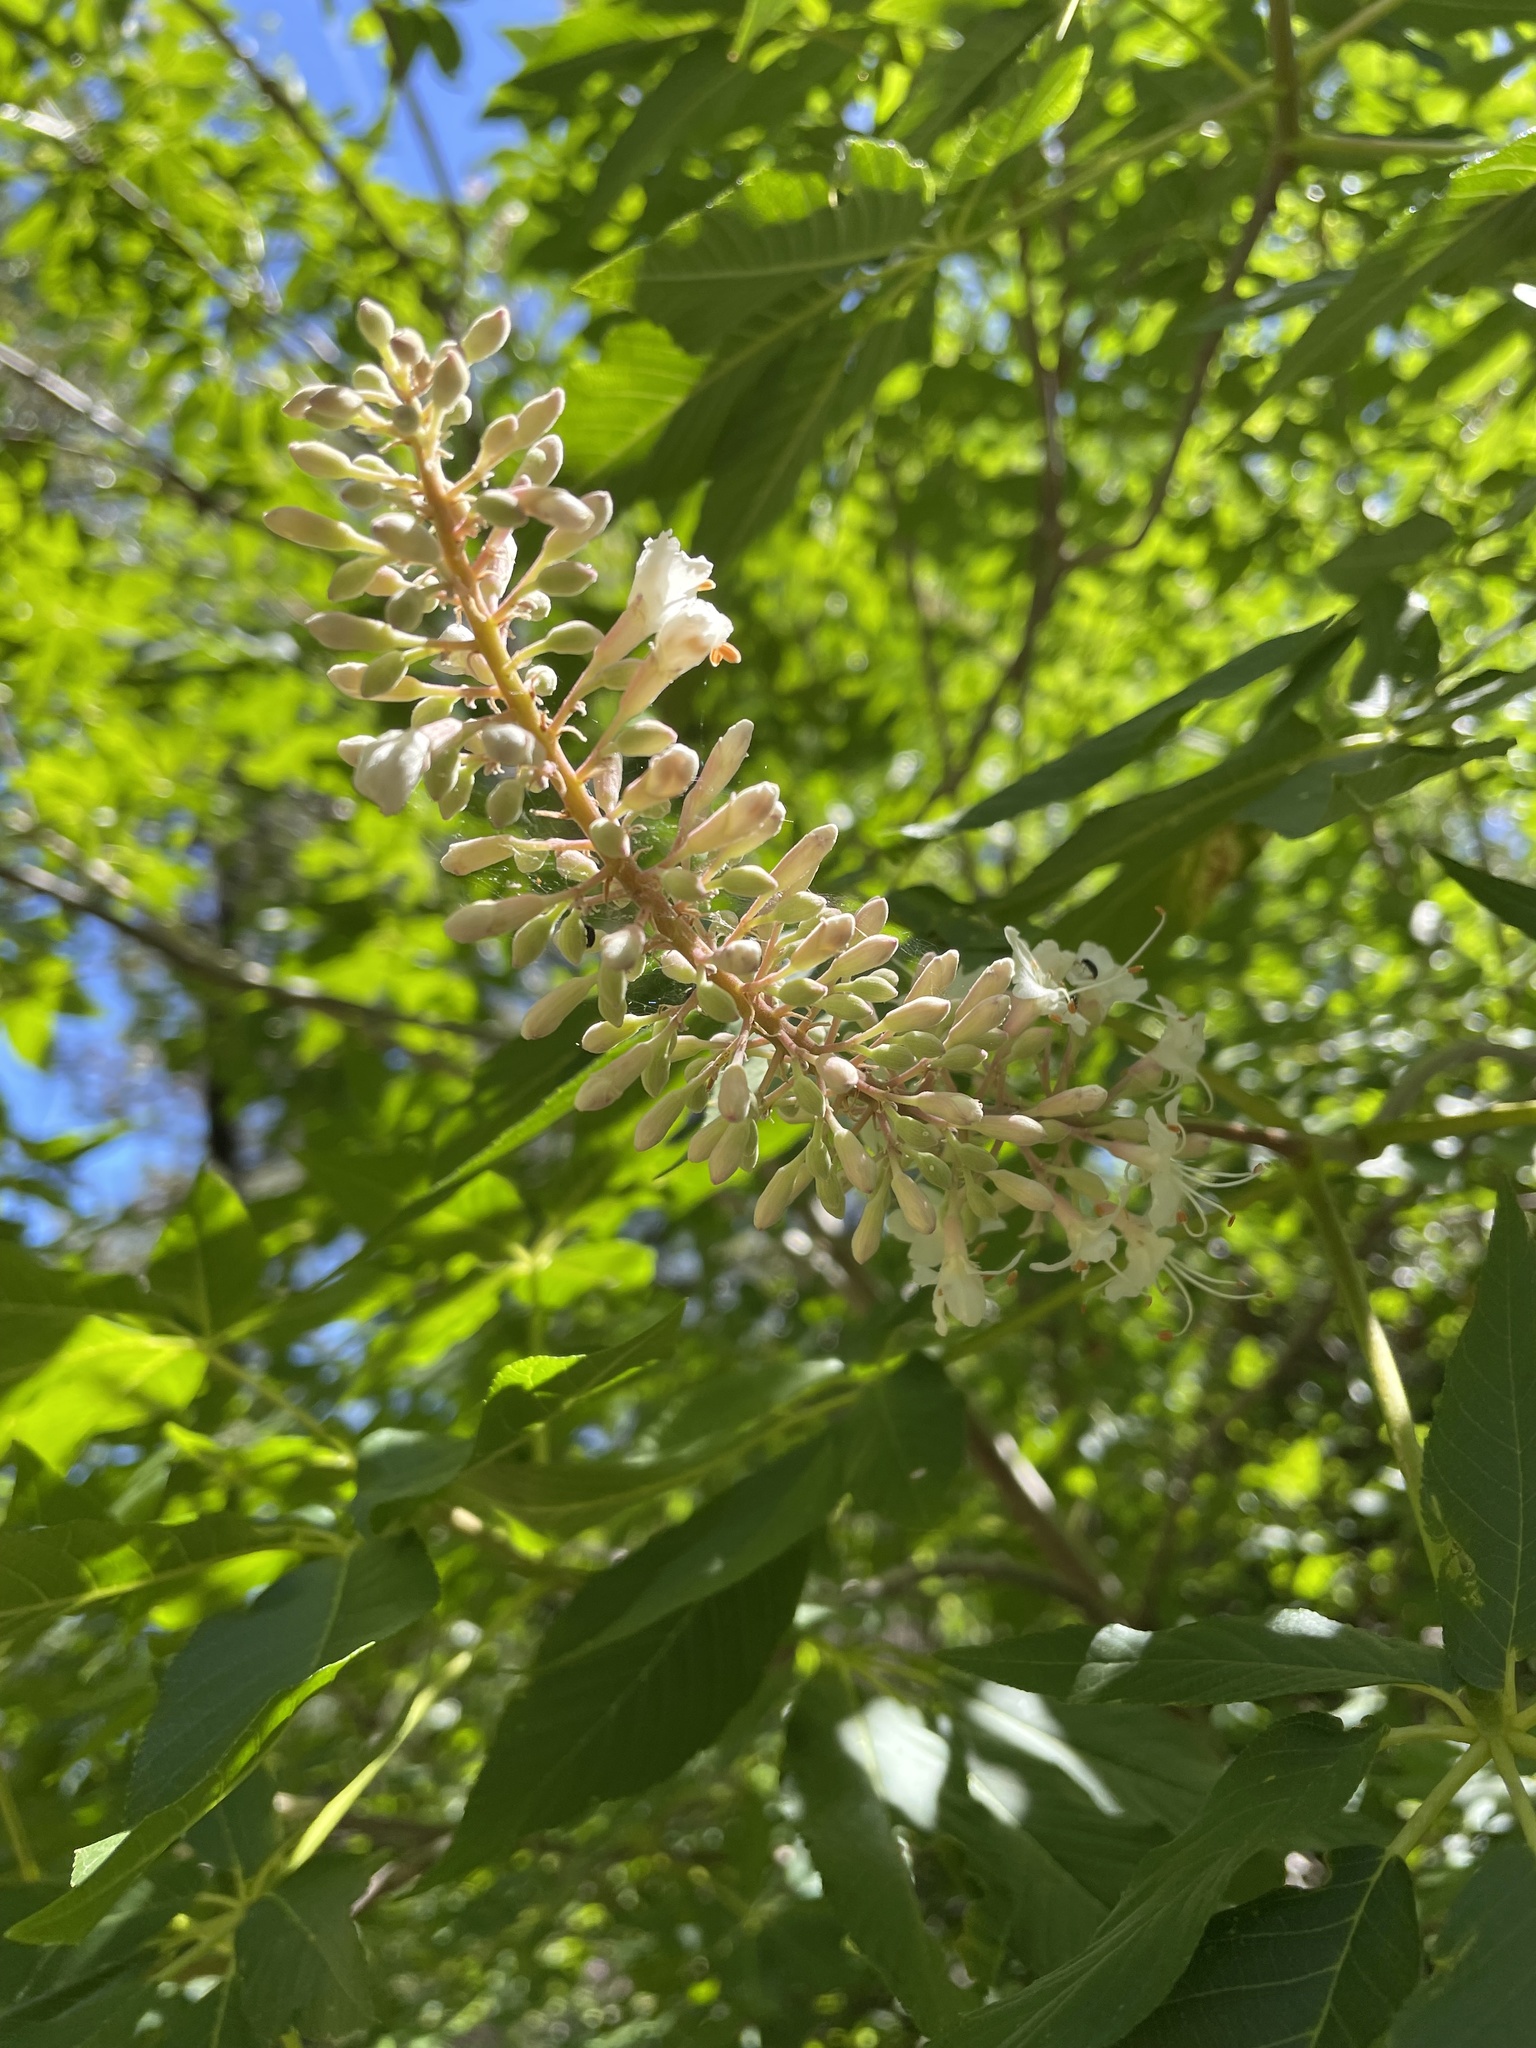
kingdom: Plantae
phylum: Tracheophyta
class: Magnoliopsida
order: Sapindales
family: Sapindaceae
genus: Aesculus
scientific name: Aesculus californica
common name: California buckeye
